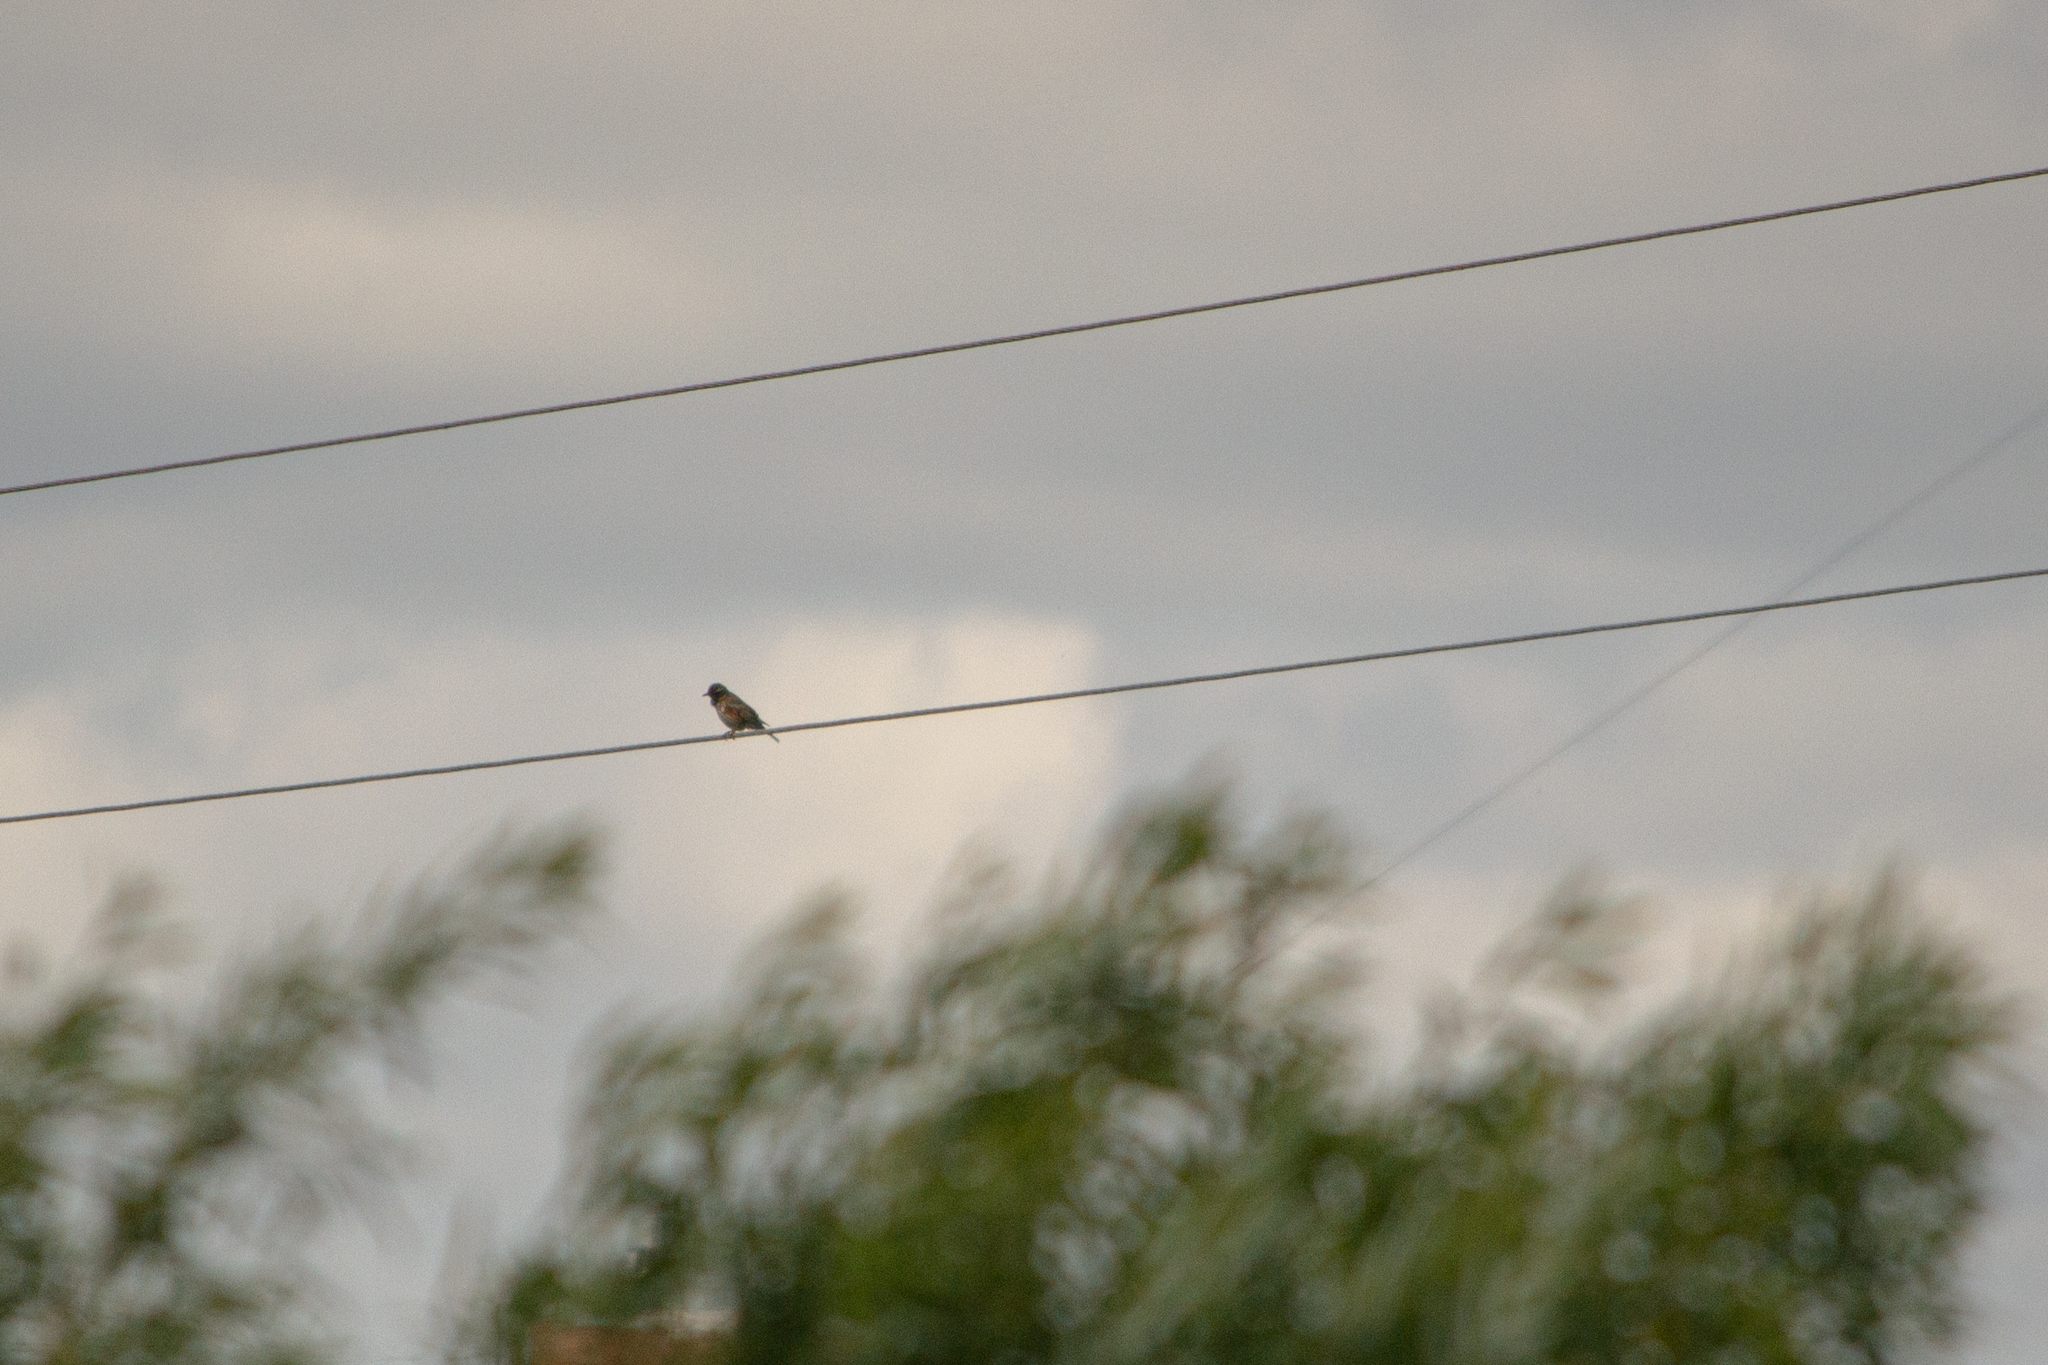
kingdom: Animalia
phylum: Chordata
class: Aves
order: Passeriformes
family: Turdidae
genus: Turdus
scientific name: Turdus iliacus
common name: Redwing
